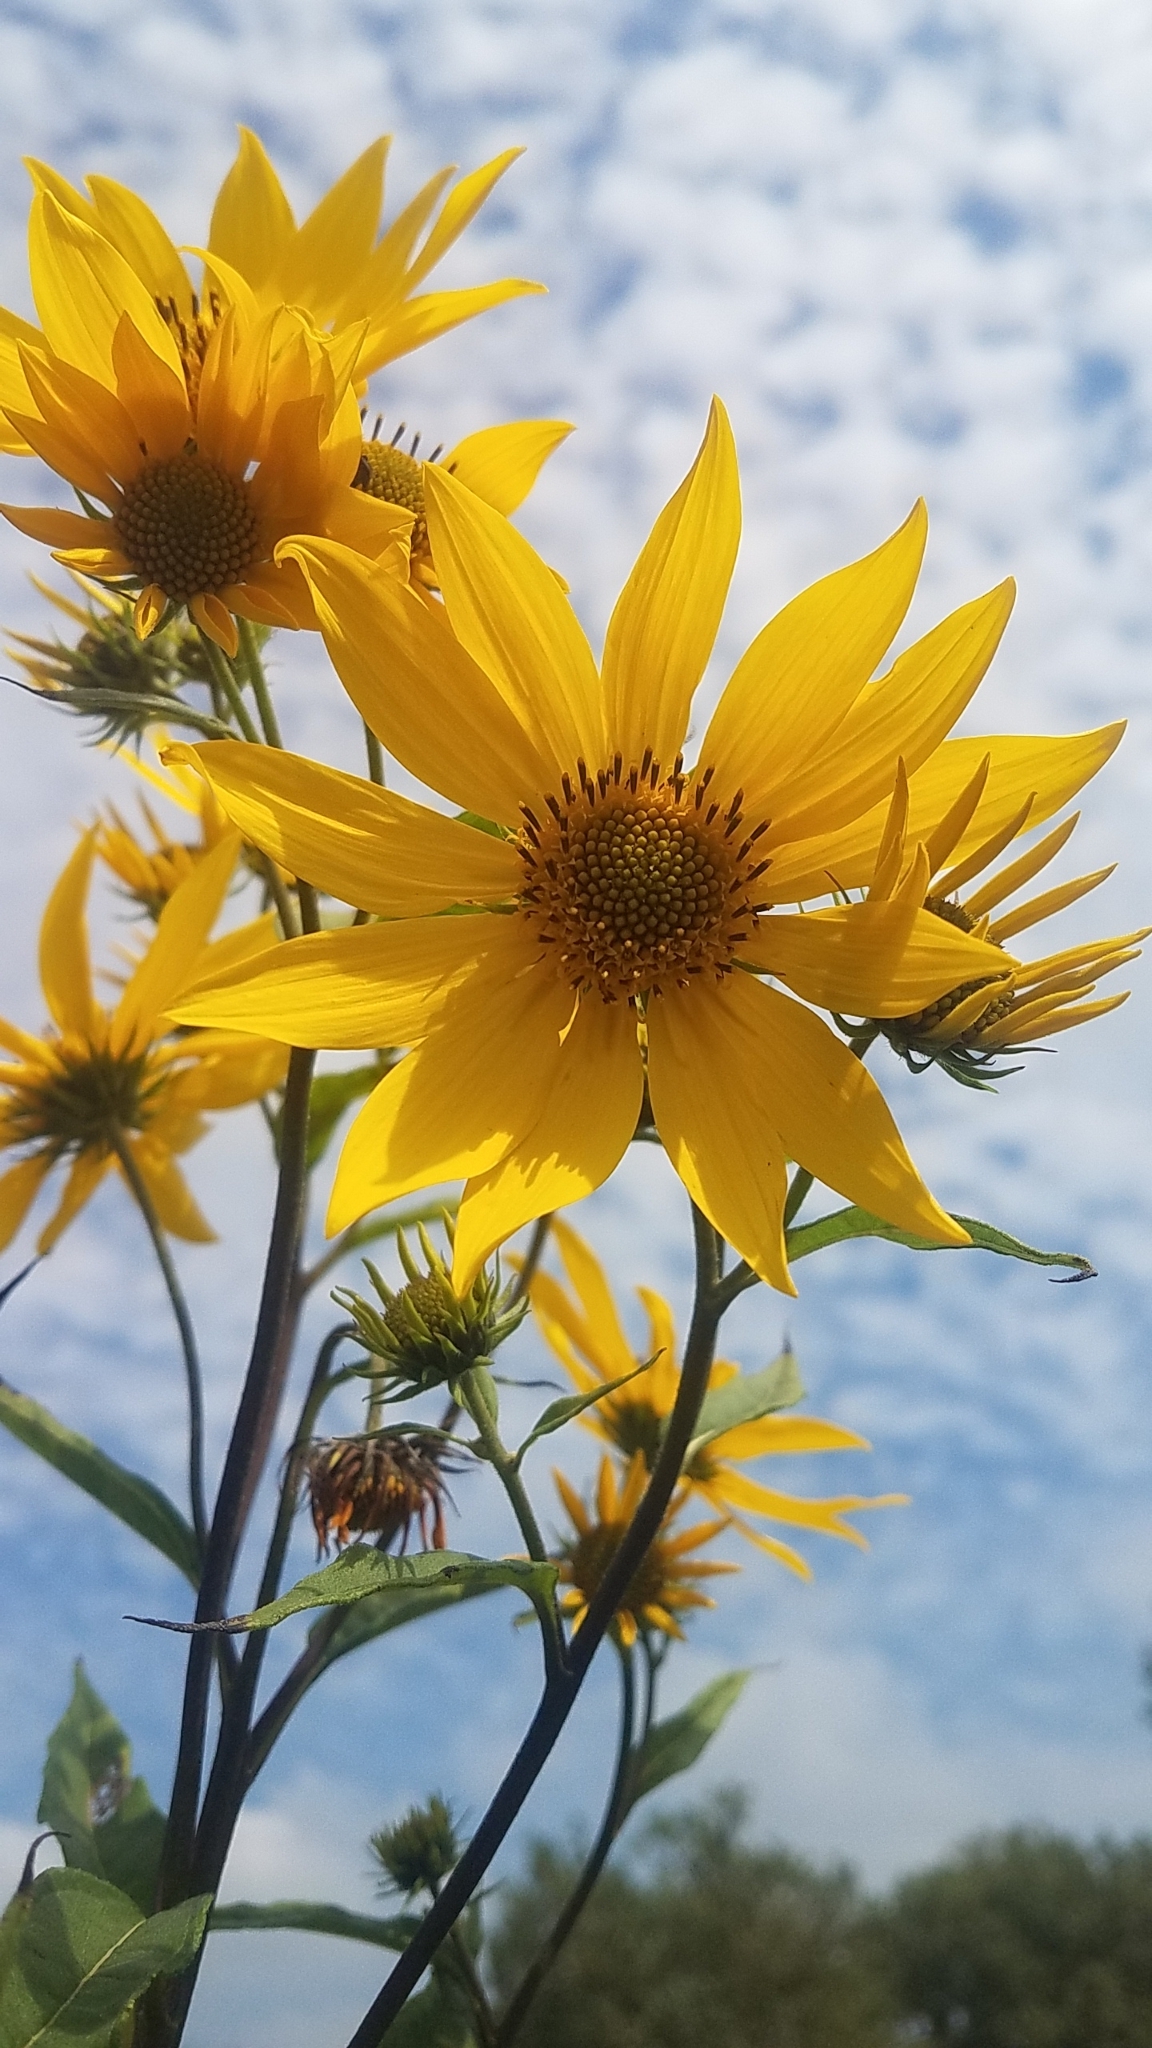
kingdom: Plantae
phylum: Tracheophyta
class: Magnoliopsida
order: Asterales
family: Asteraceae
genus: Helianthus
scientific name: Helianthus grosseserratus
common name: Sawtooth sunflower
